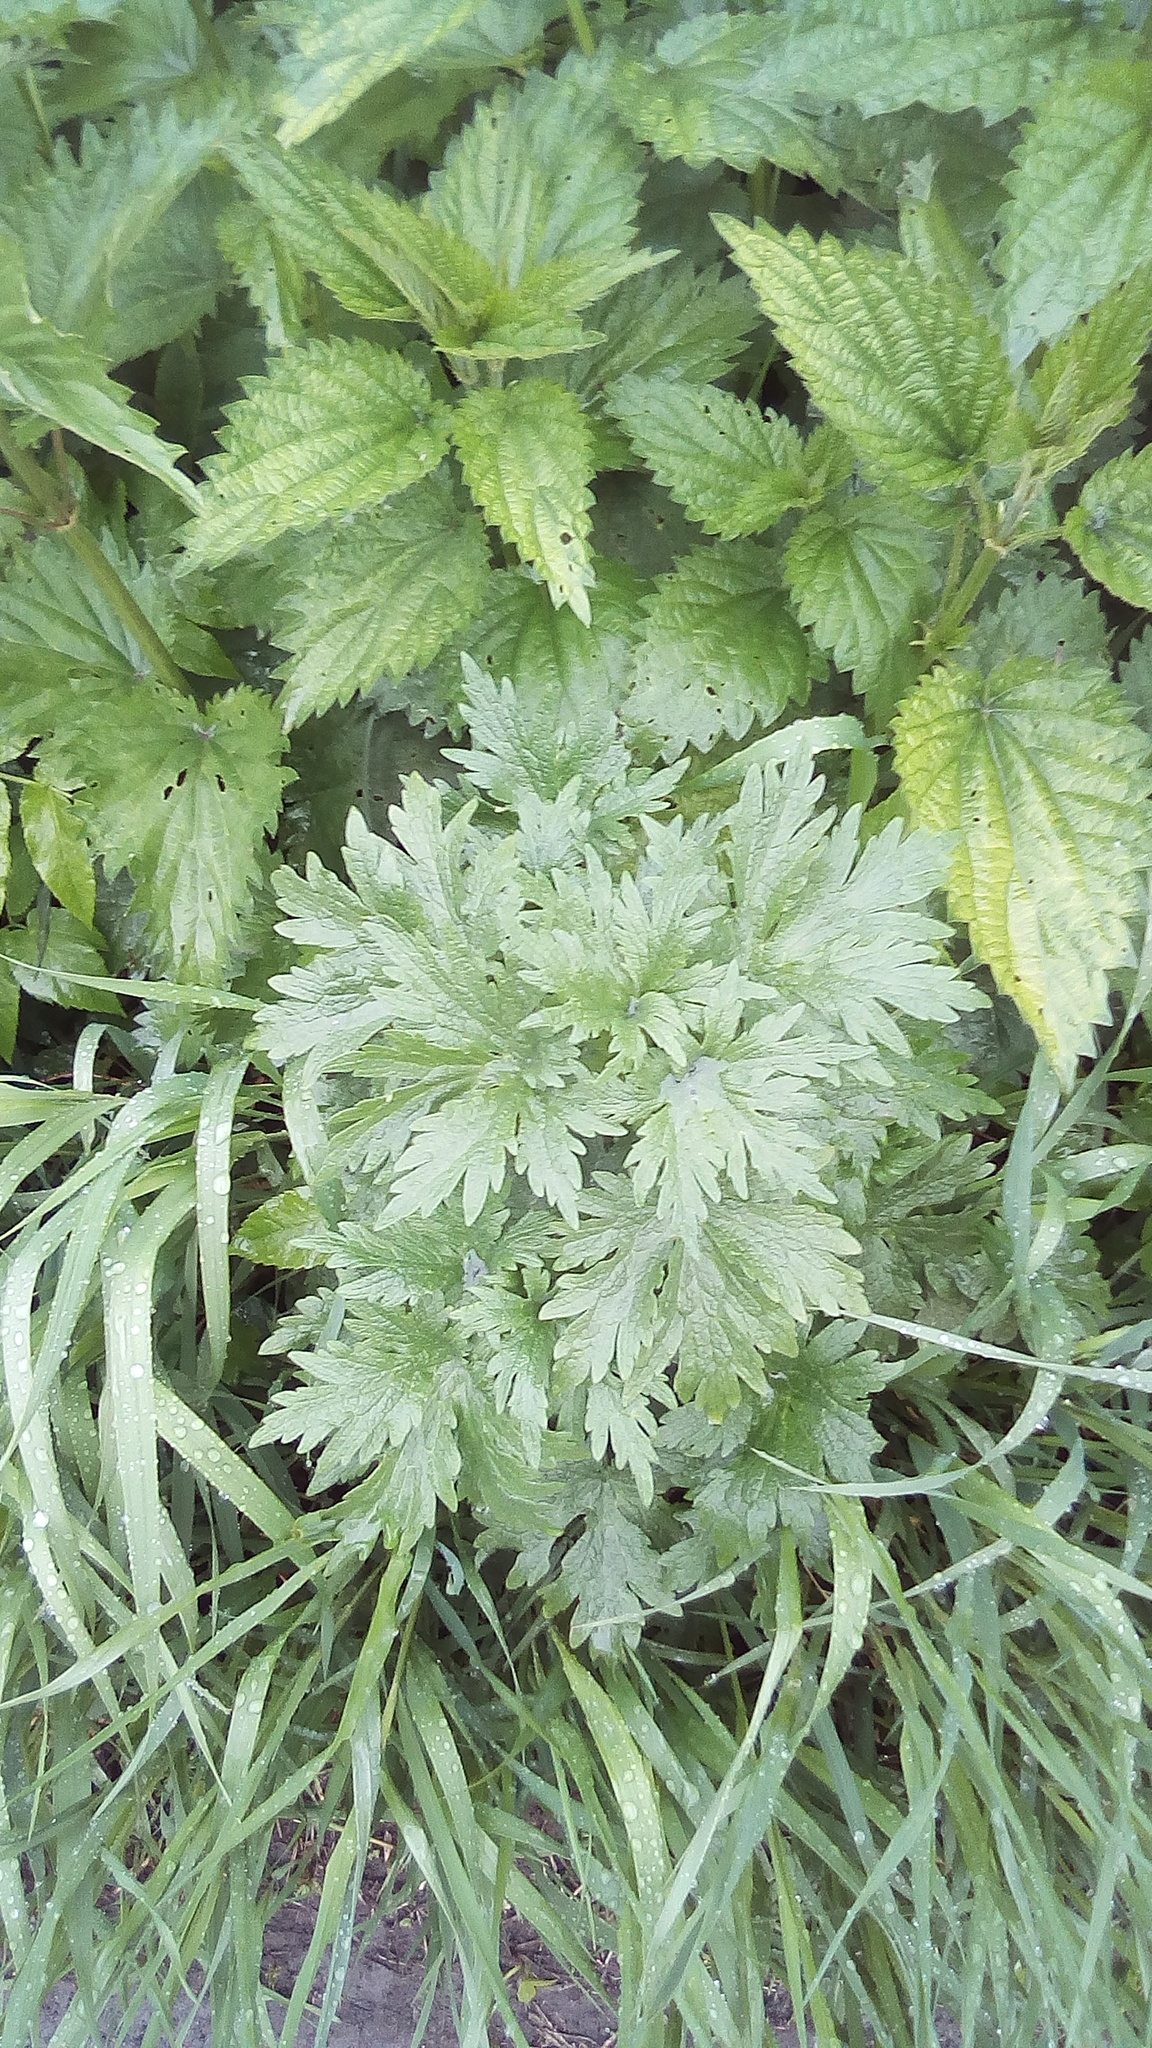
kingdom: Plantae
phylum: Tracheophyta
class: Magnoliopsida
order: Lamiales
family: Lamiaceae
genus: Leonurus
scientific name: Leonurus quinquelobatus
